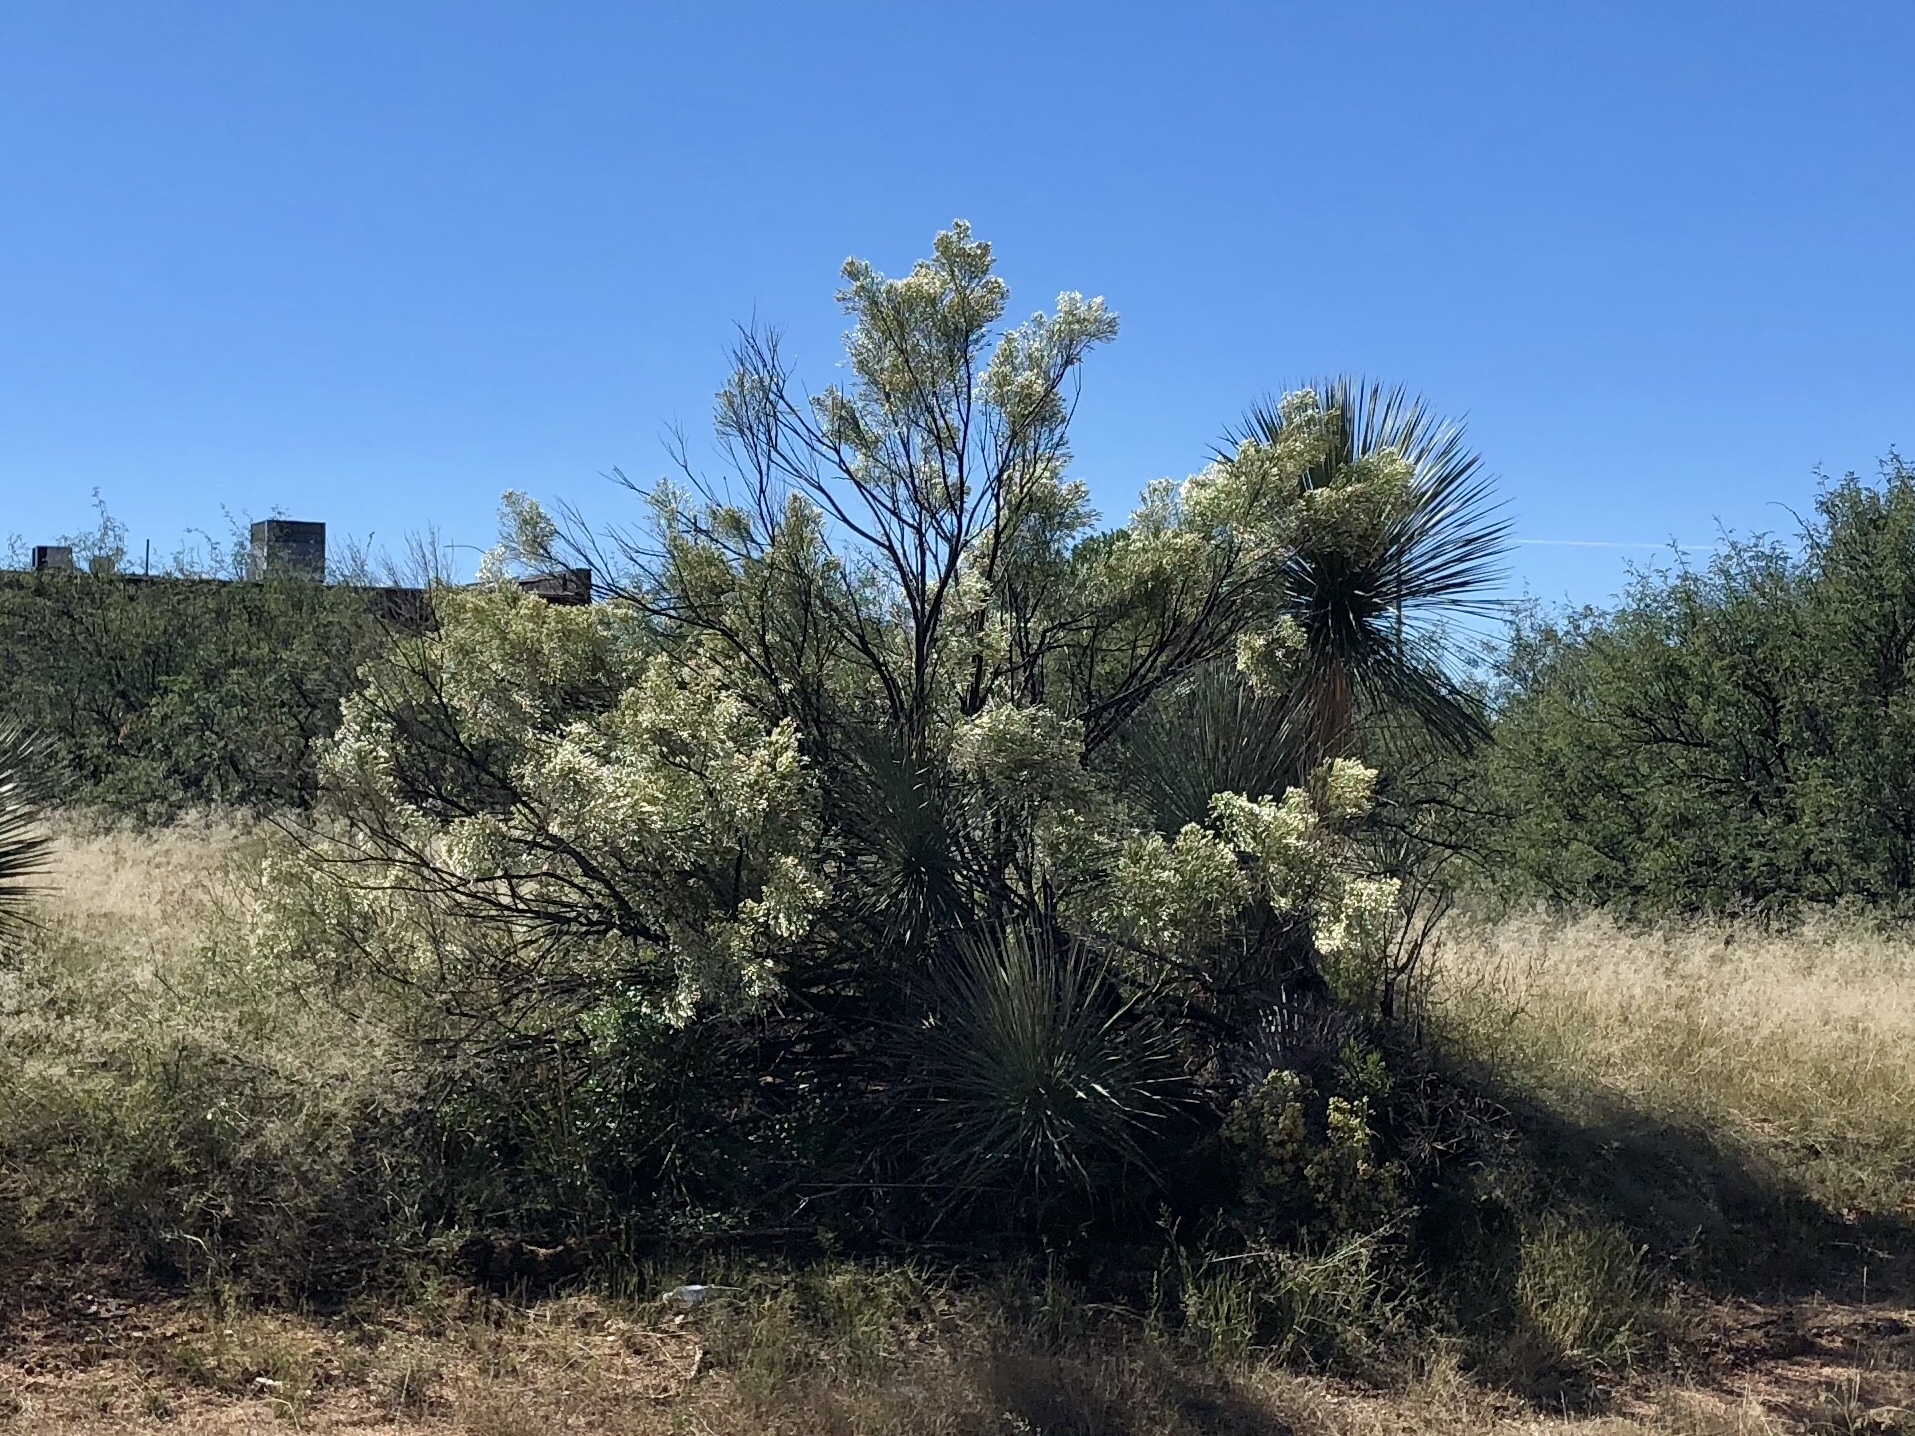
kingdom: Plantae
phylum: Tracheophyta
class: Magnoliopsida
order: Asterales
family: Asteraceae
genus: Baccharis
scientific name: Baccharis sarothroides
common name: Desert-broom
